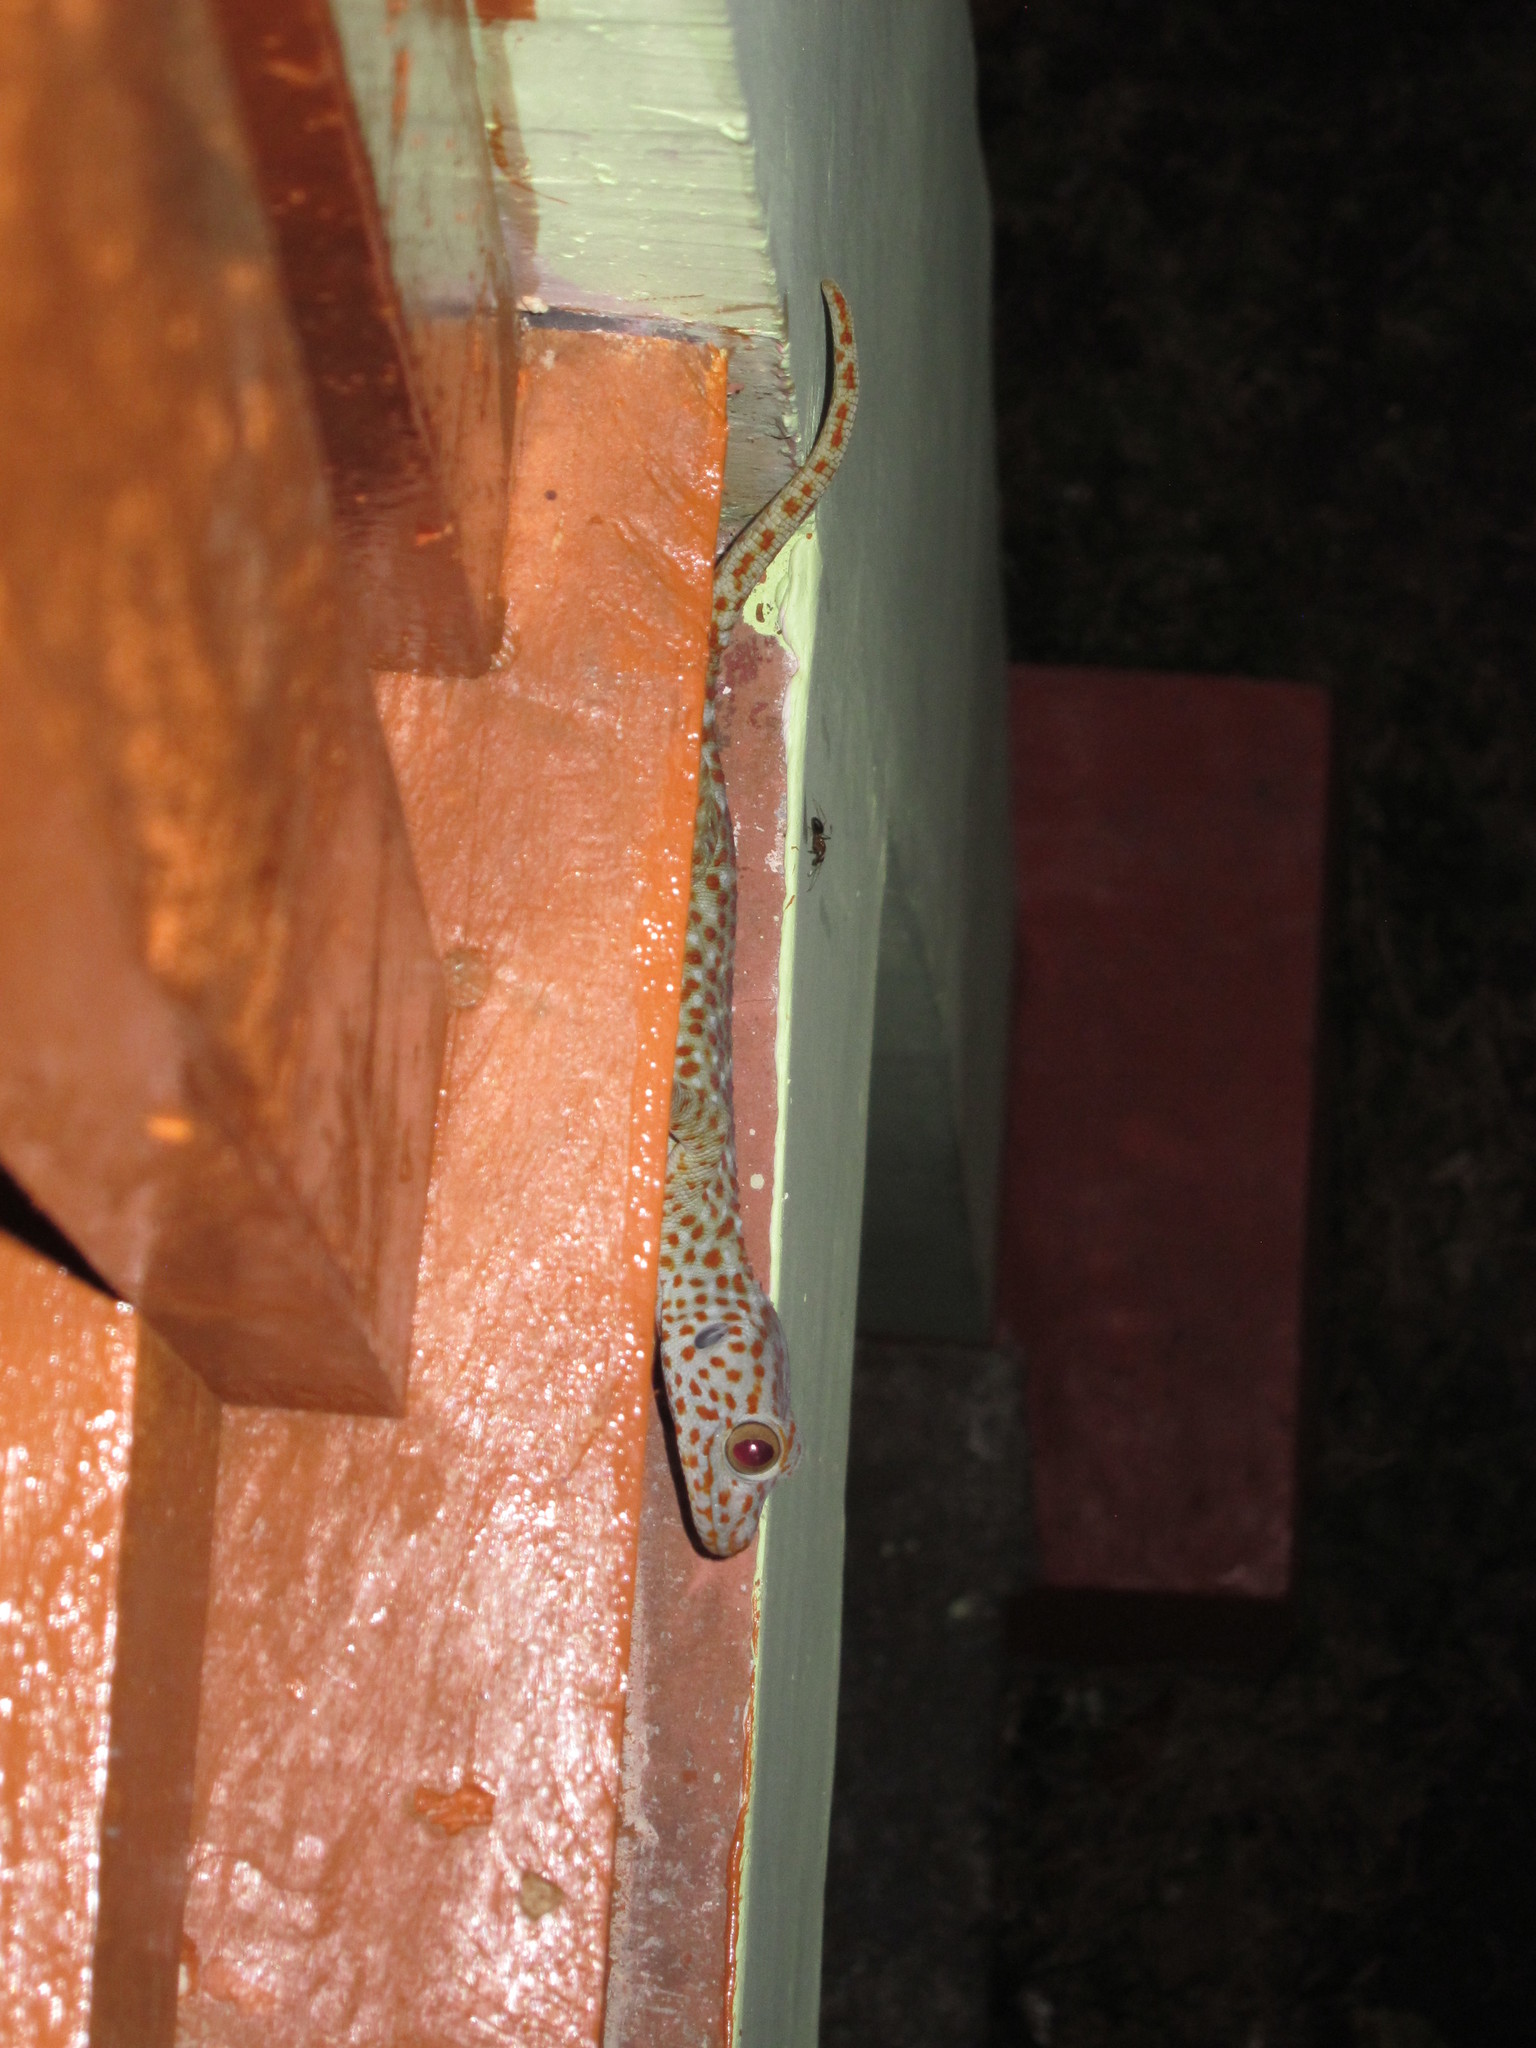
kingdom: Animalia
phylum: Chordata
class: Squamata
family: Gekkonidae
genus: Gekko
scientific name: Gekko gecko
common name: Tokay gecko
